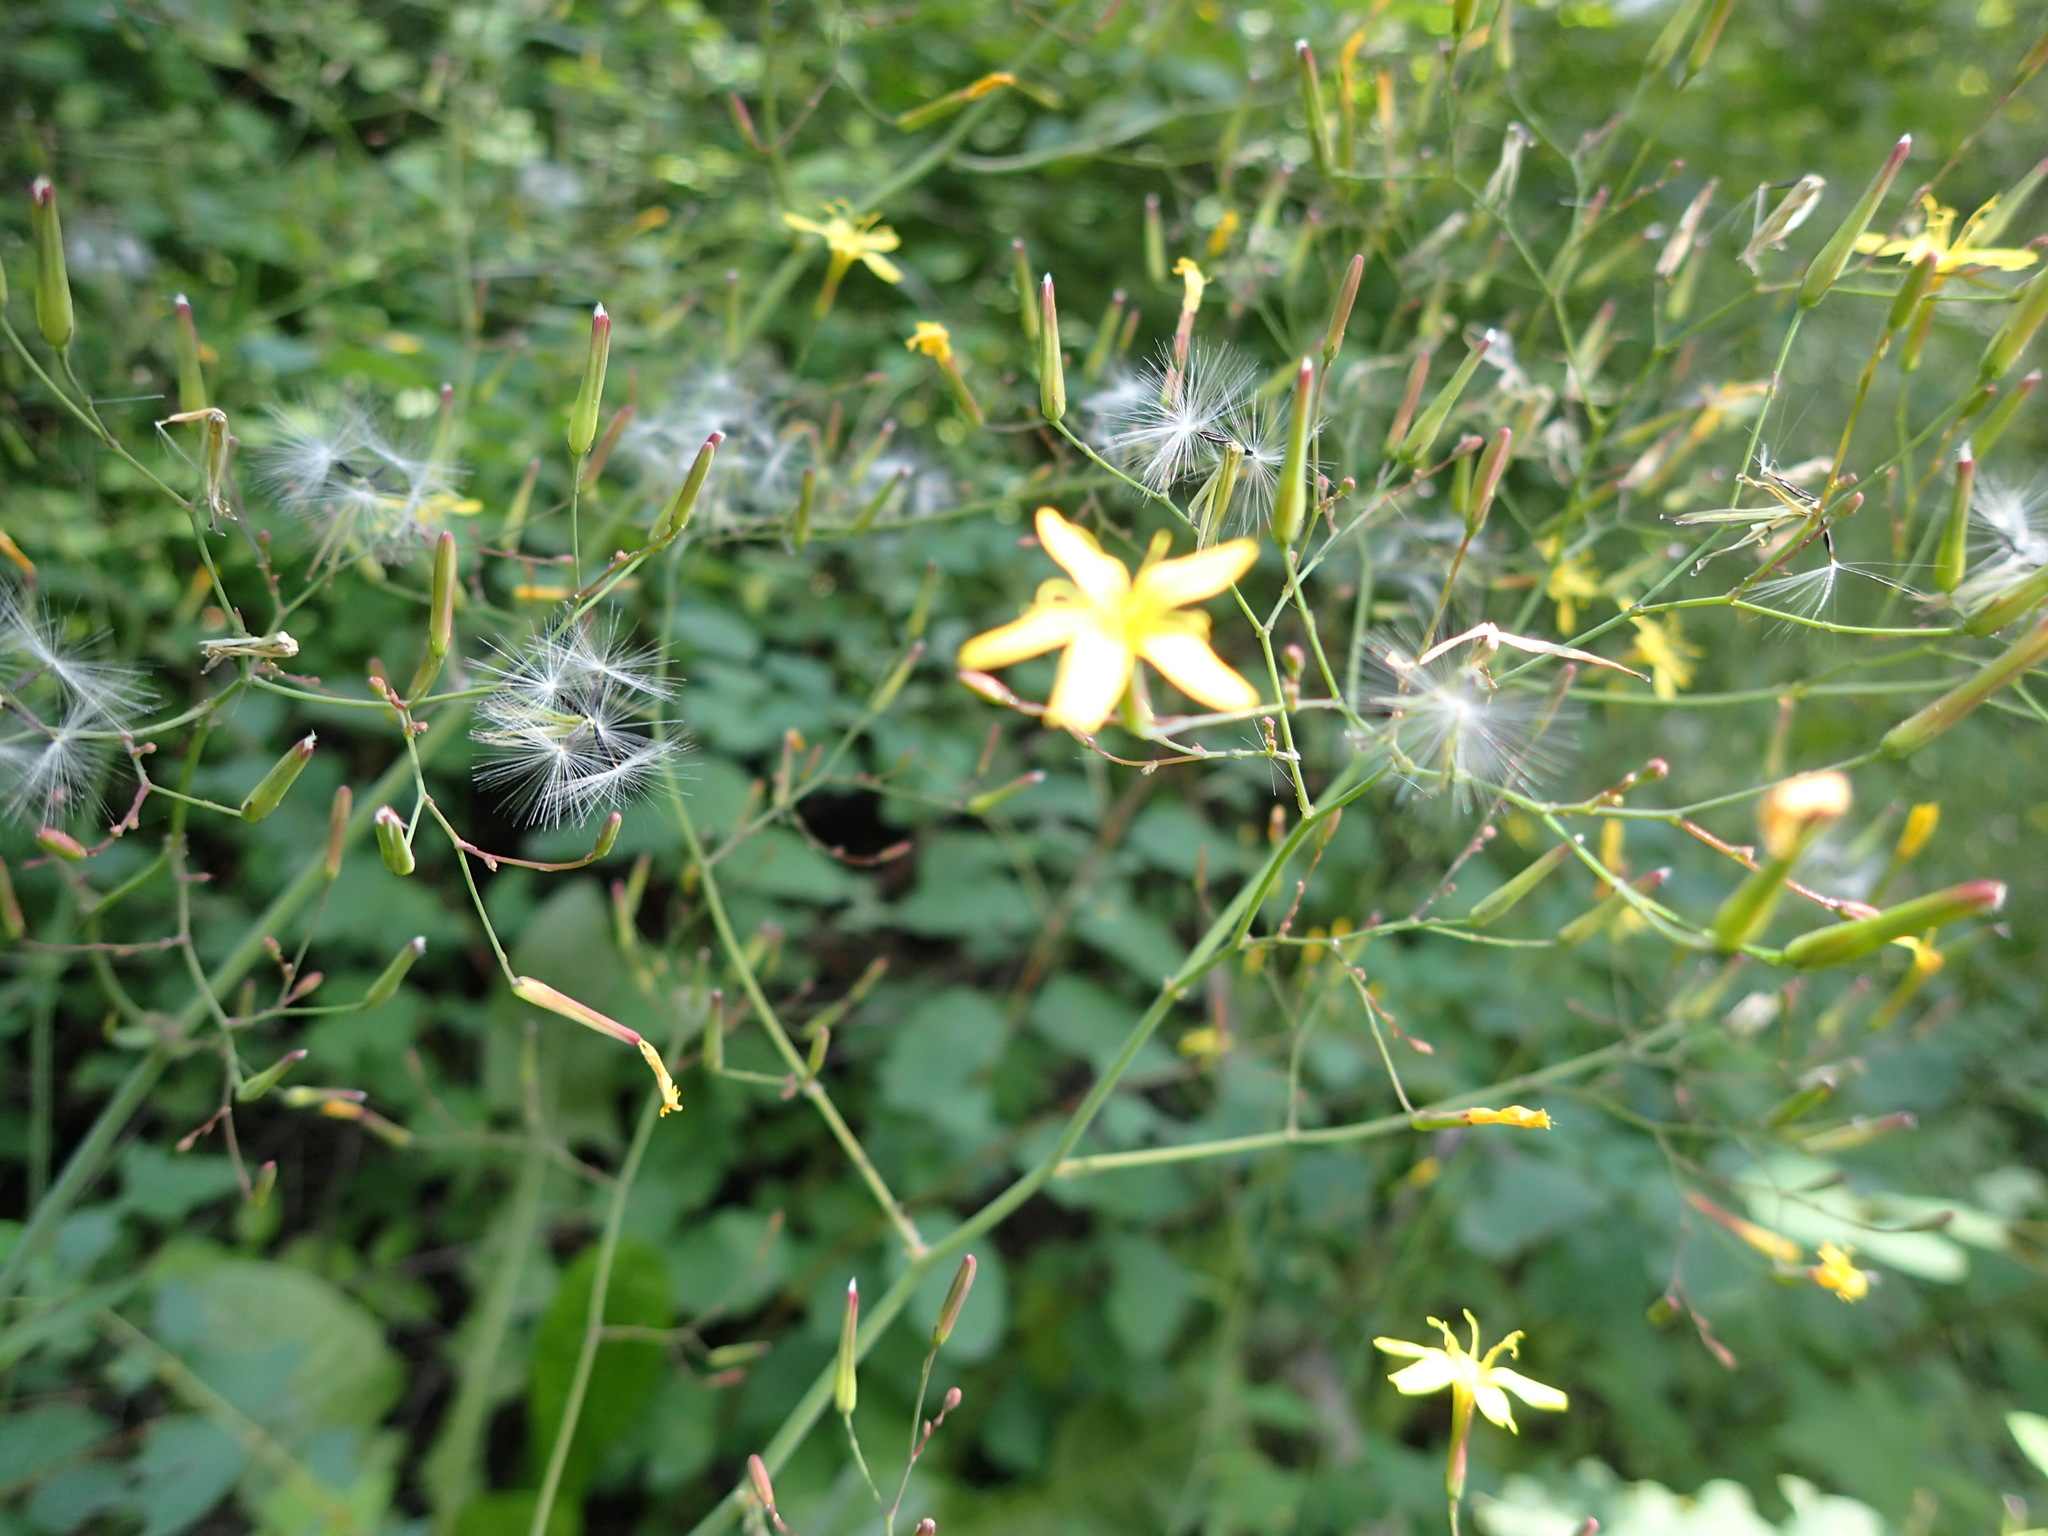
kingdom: Plantae
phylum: Tracheophyta
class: Magnoliopsida
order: Asterales
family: Asteraceae
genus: Mycelis
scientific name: Mycelis muralis
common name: Wall lettuce
